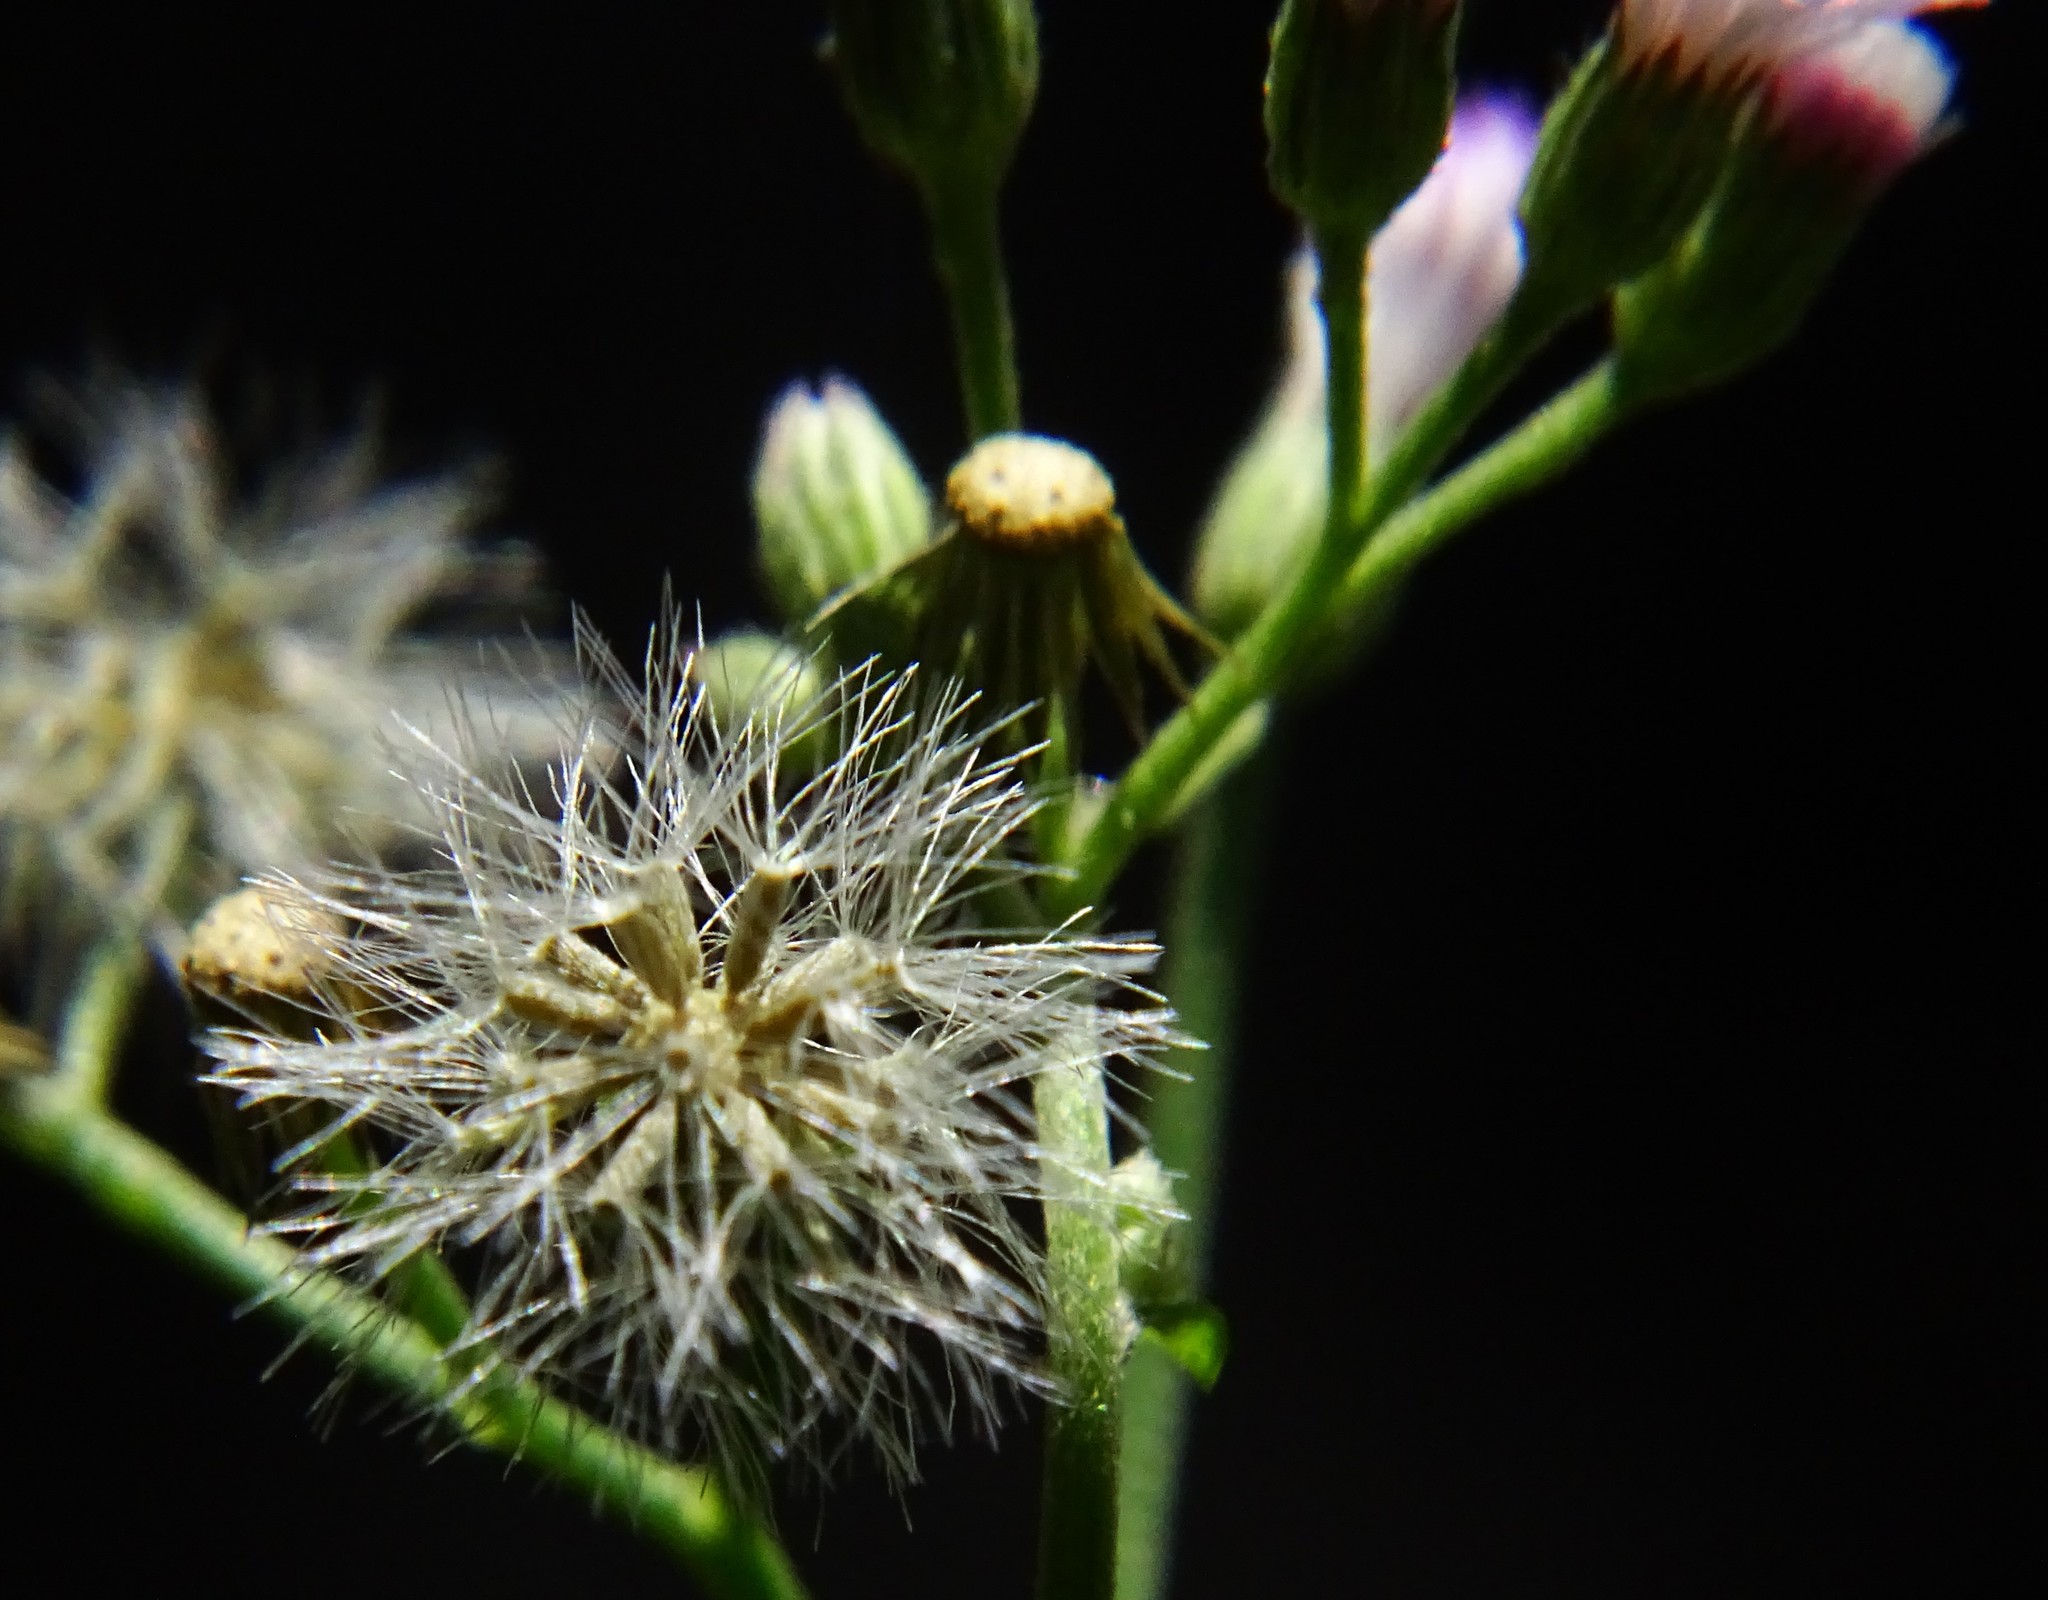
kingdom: Plantae
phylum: Tracheophyta
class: Magnoliopsida
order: Asterales
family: Asteraceae
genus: Cyanthillium
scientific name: Cyanthillium cinereum
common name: Little ironweed
